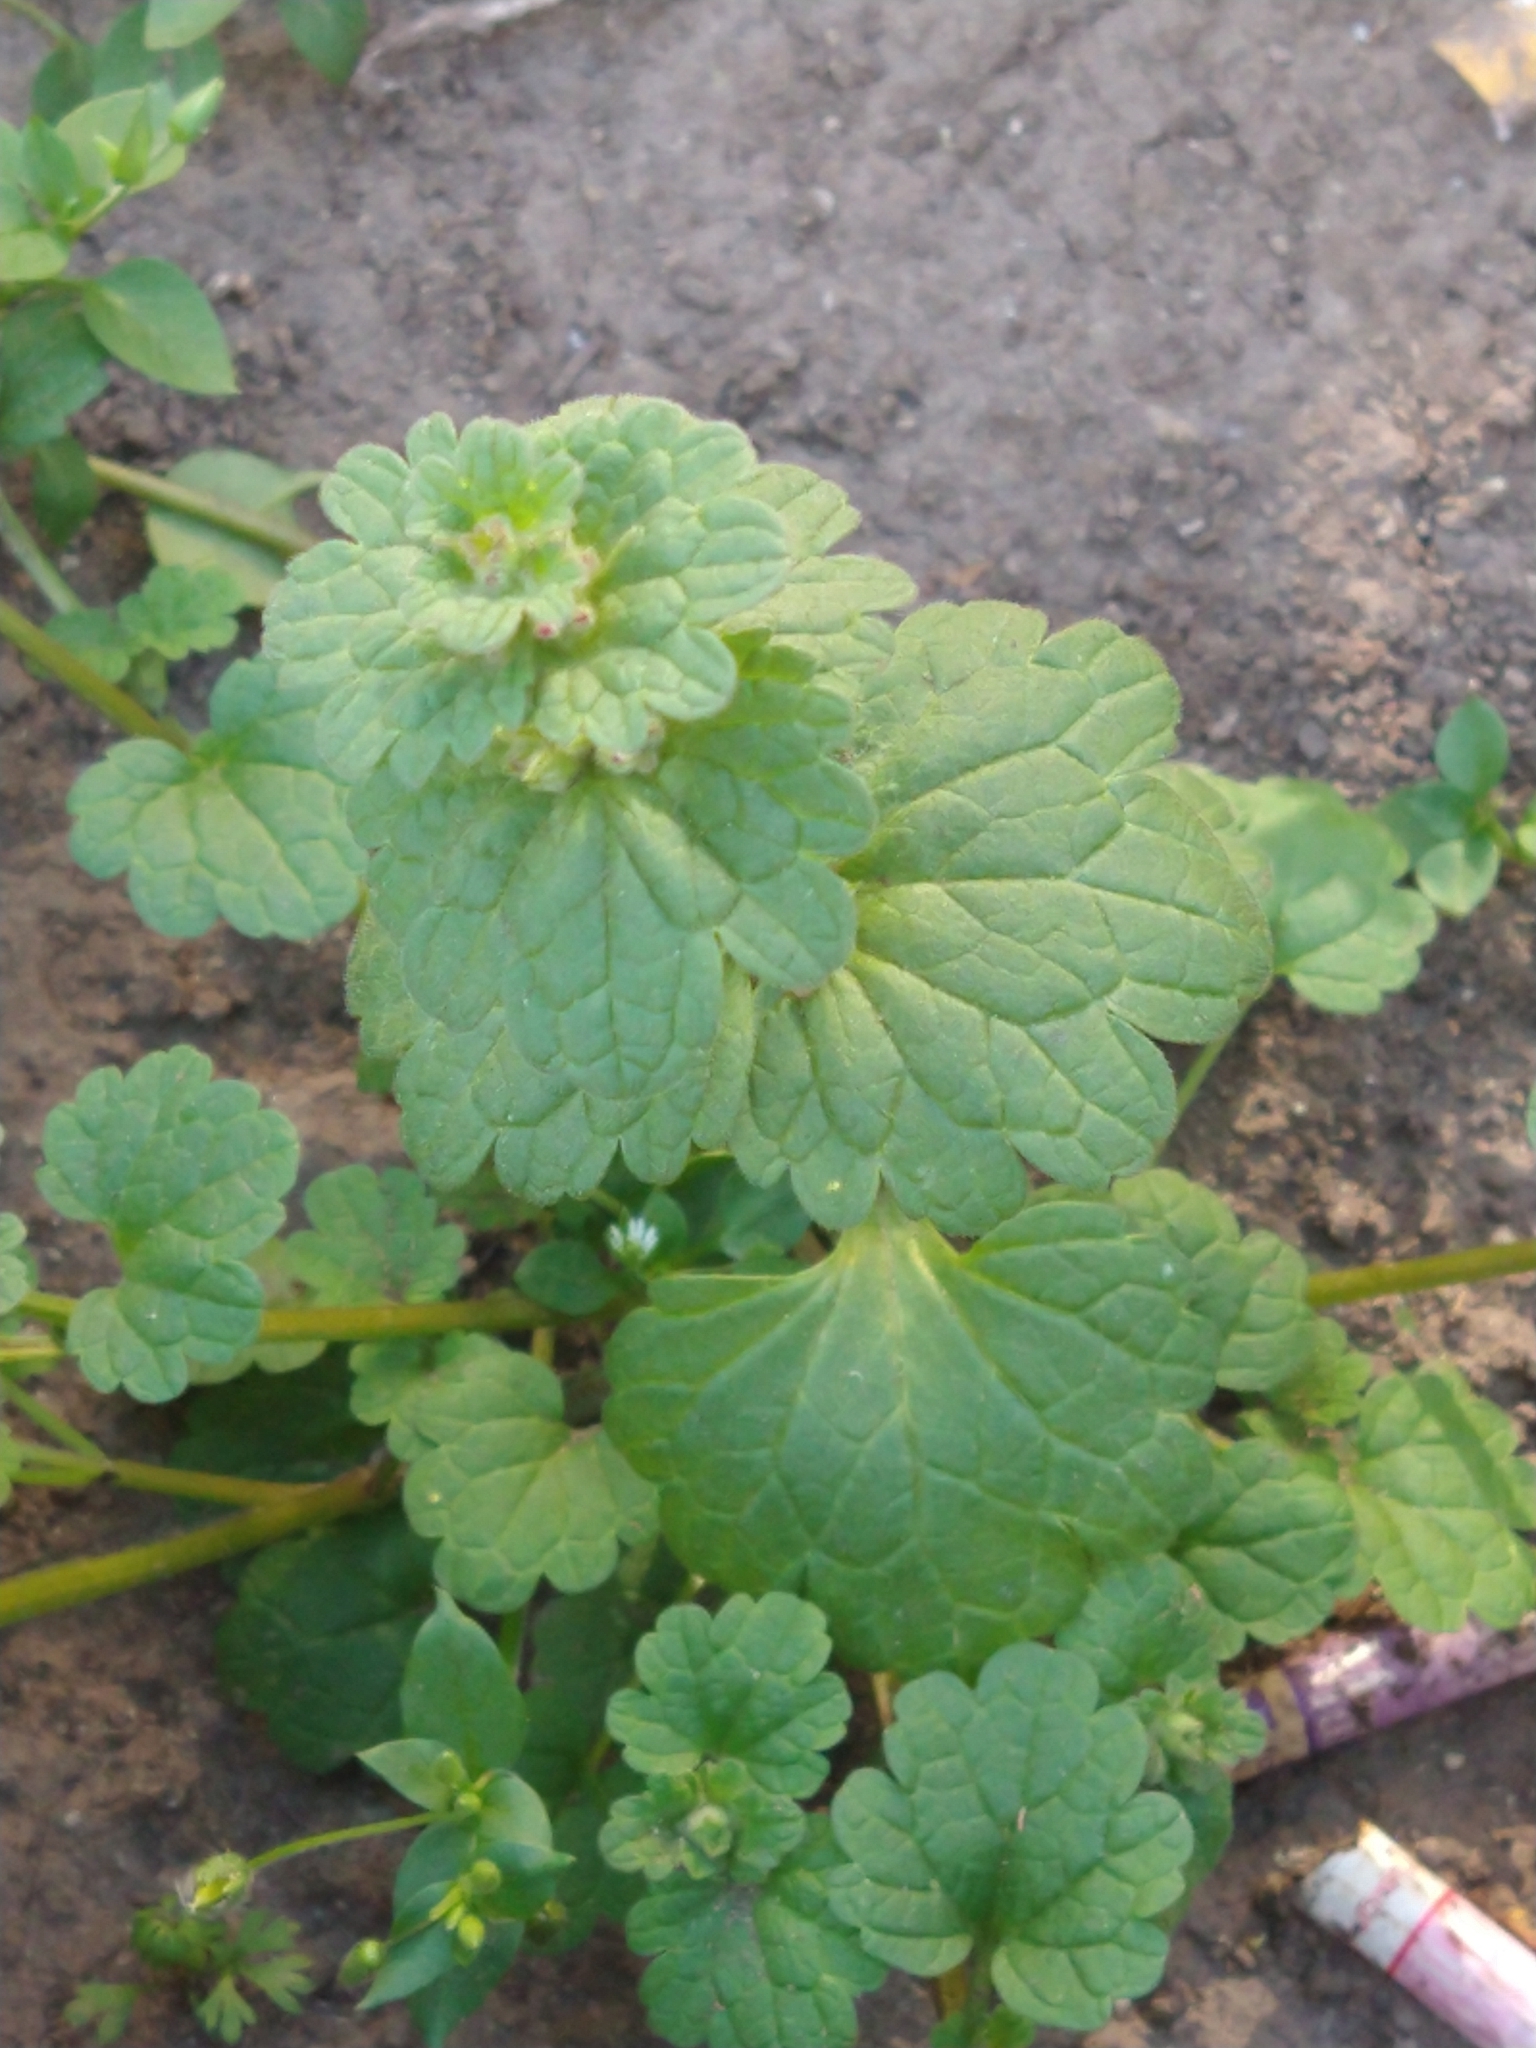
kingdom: Plantae
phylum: Tracheophyta
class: Magnoliopsida
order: Lamiales
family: Lamiaceae
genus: Lamium
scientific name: Lamium amplexicaule
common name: Henbit dead-nettle
